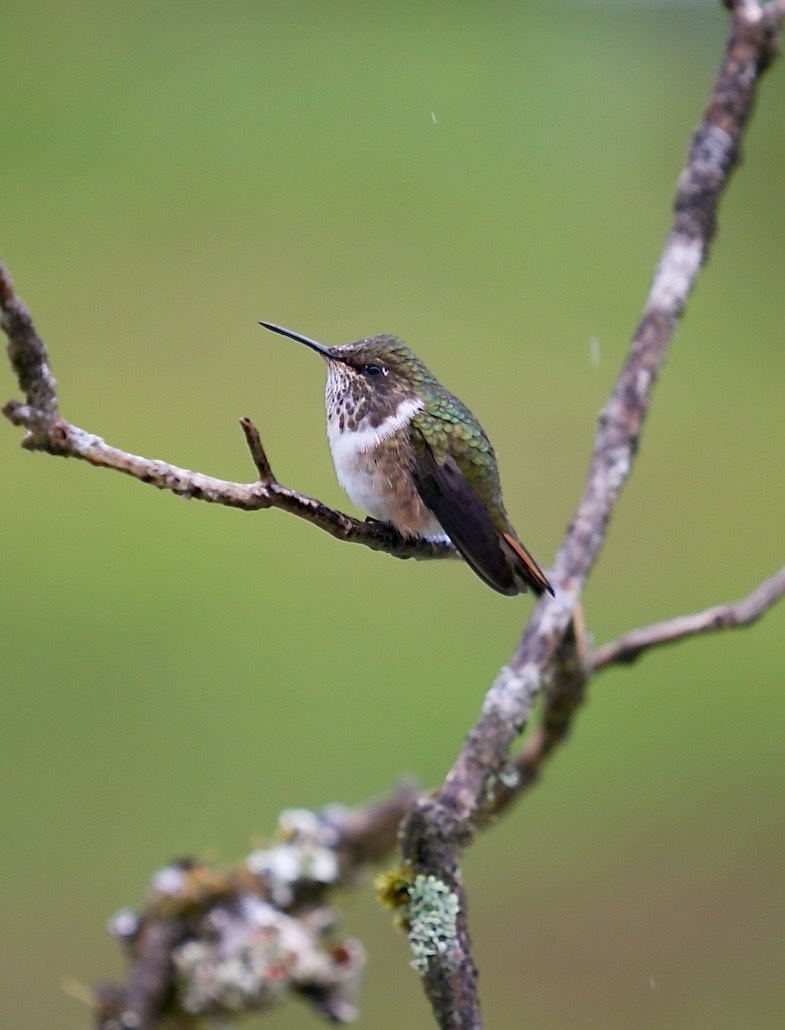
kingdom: Animalia
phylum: Chordata
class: Aves
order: Apodiformes
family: Trochilidae
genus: Selasphorus
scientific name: Selasphorus flammula
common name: Volcano hummingbird
